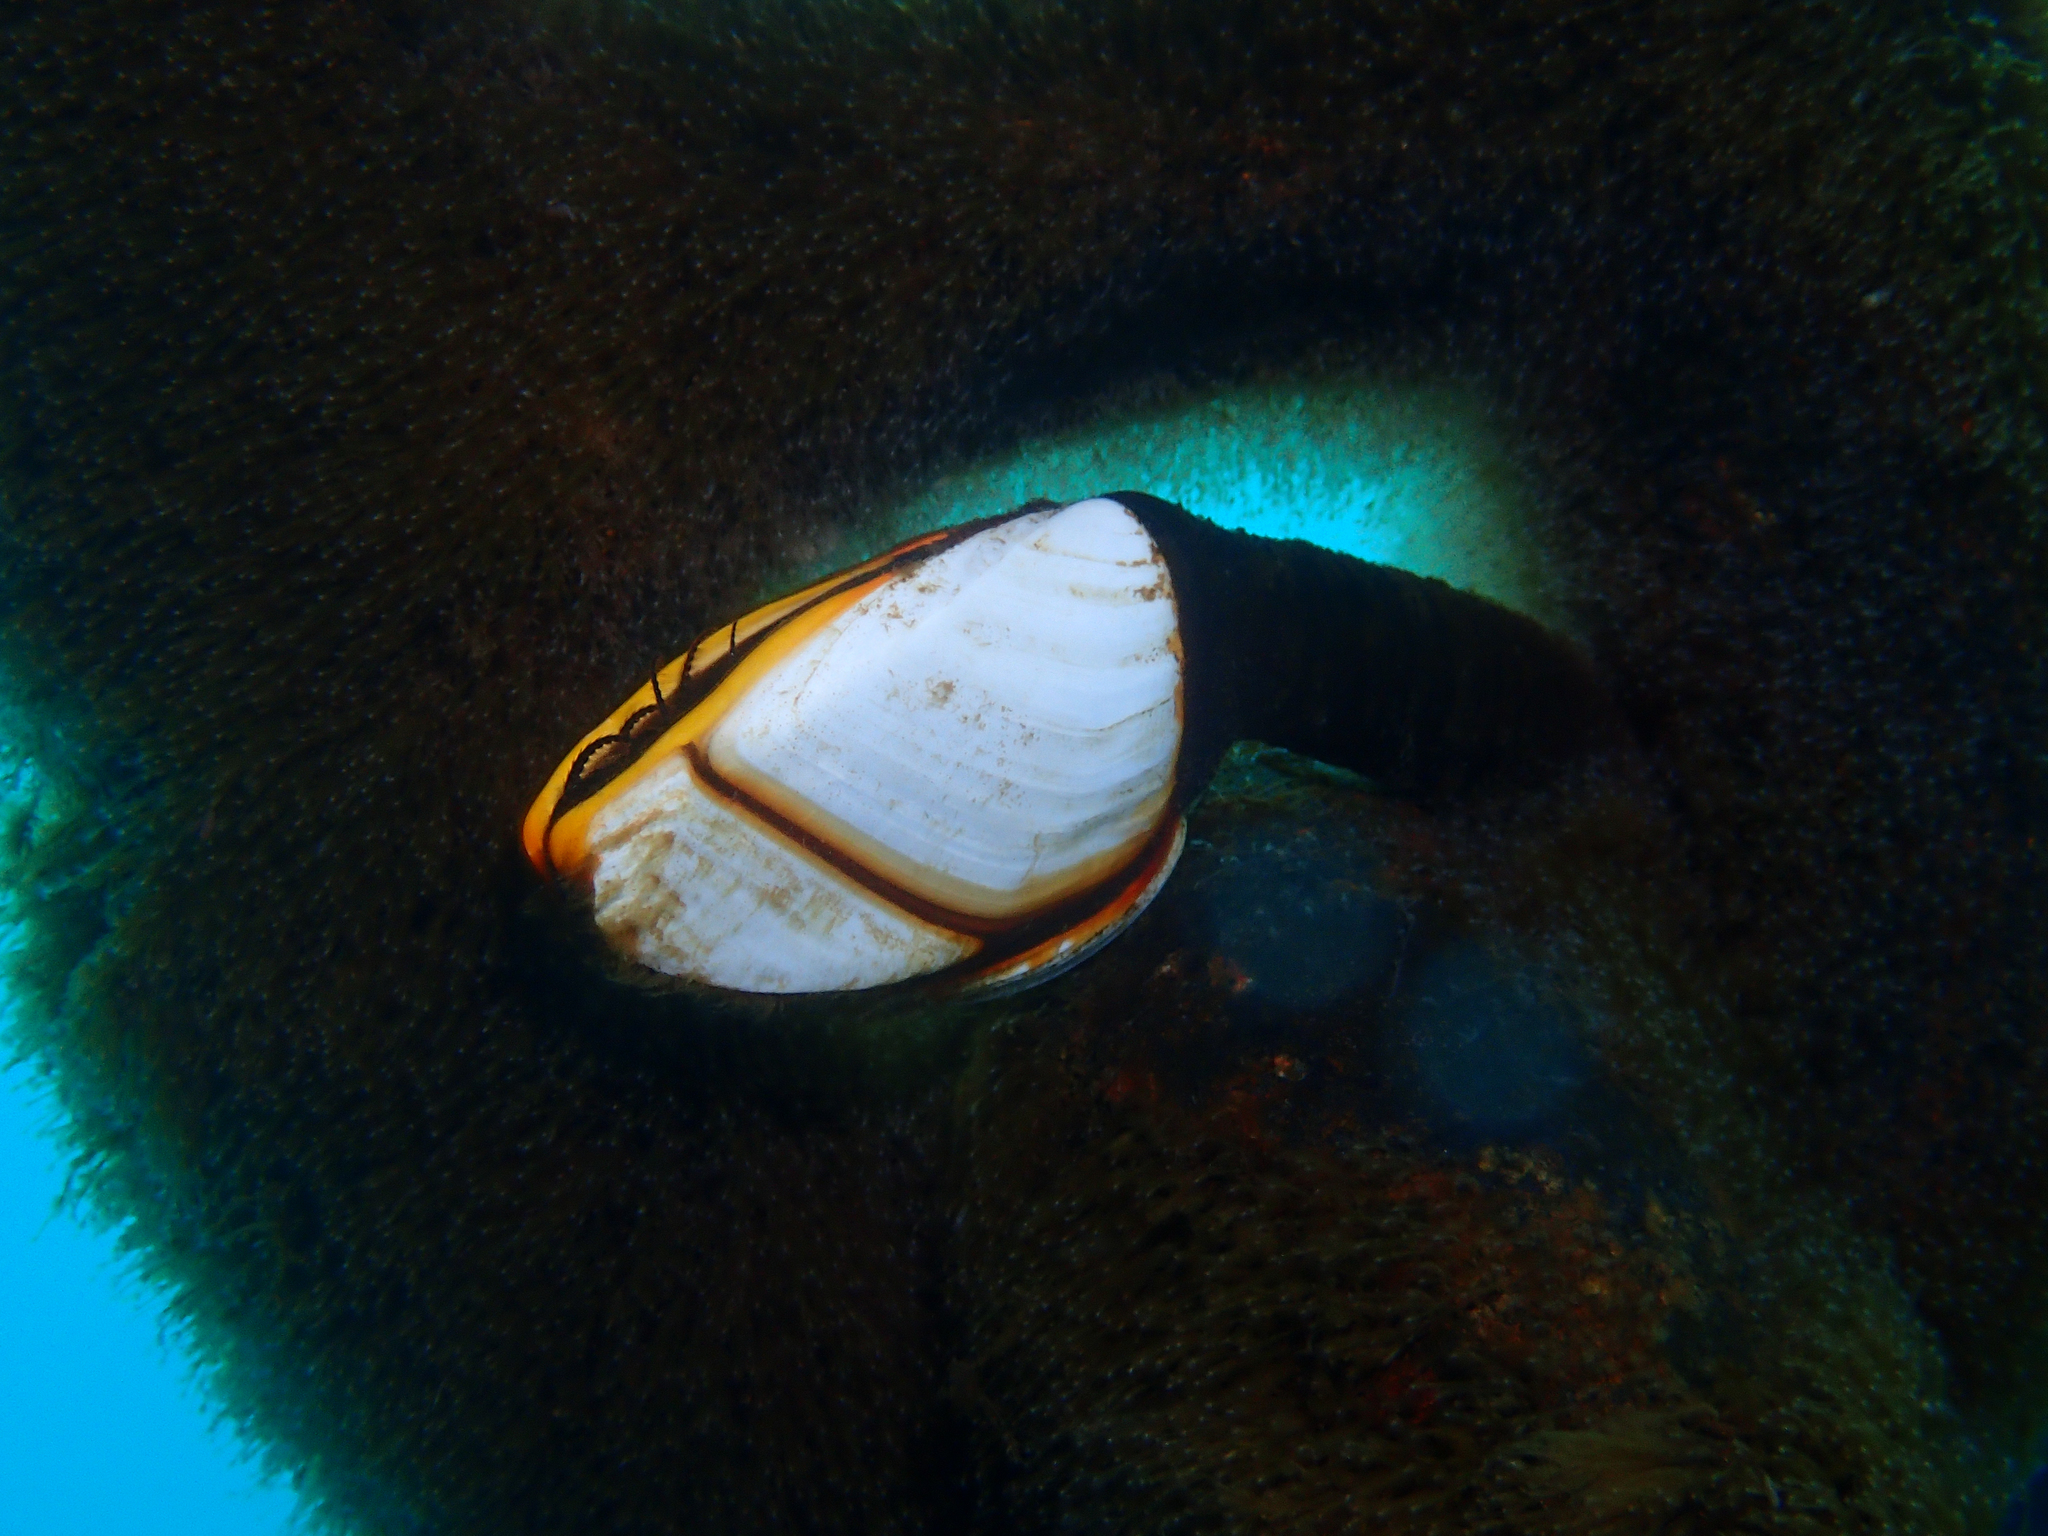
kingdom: Animalia
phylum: Arthropoda
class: Maxillopoda
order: Pedunculata
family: Lepadidae
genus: Lepas
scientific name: Lepas anatifera
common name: Common goose barnacle
